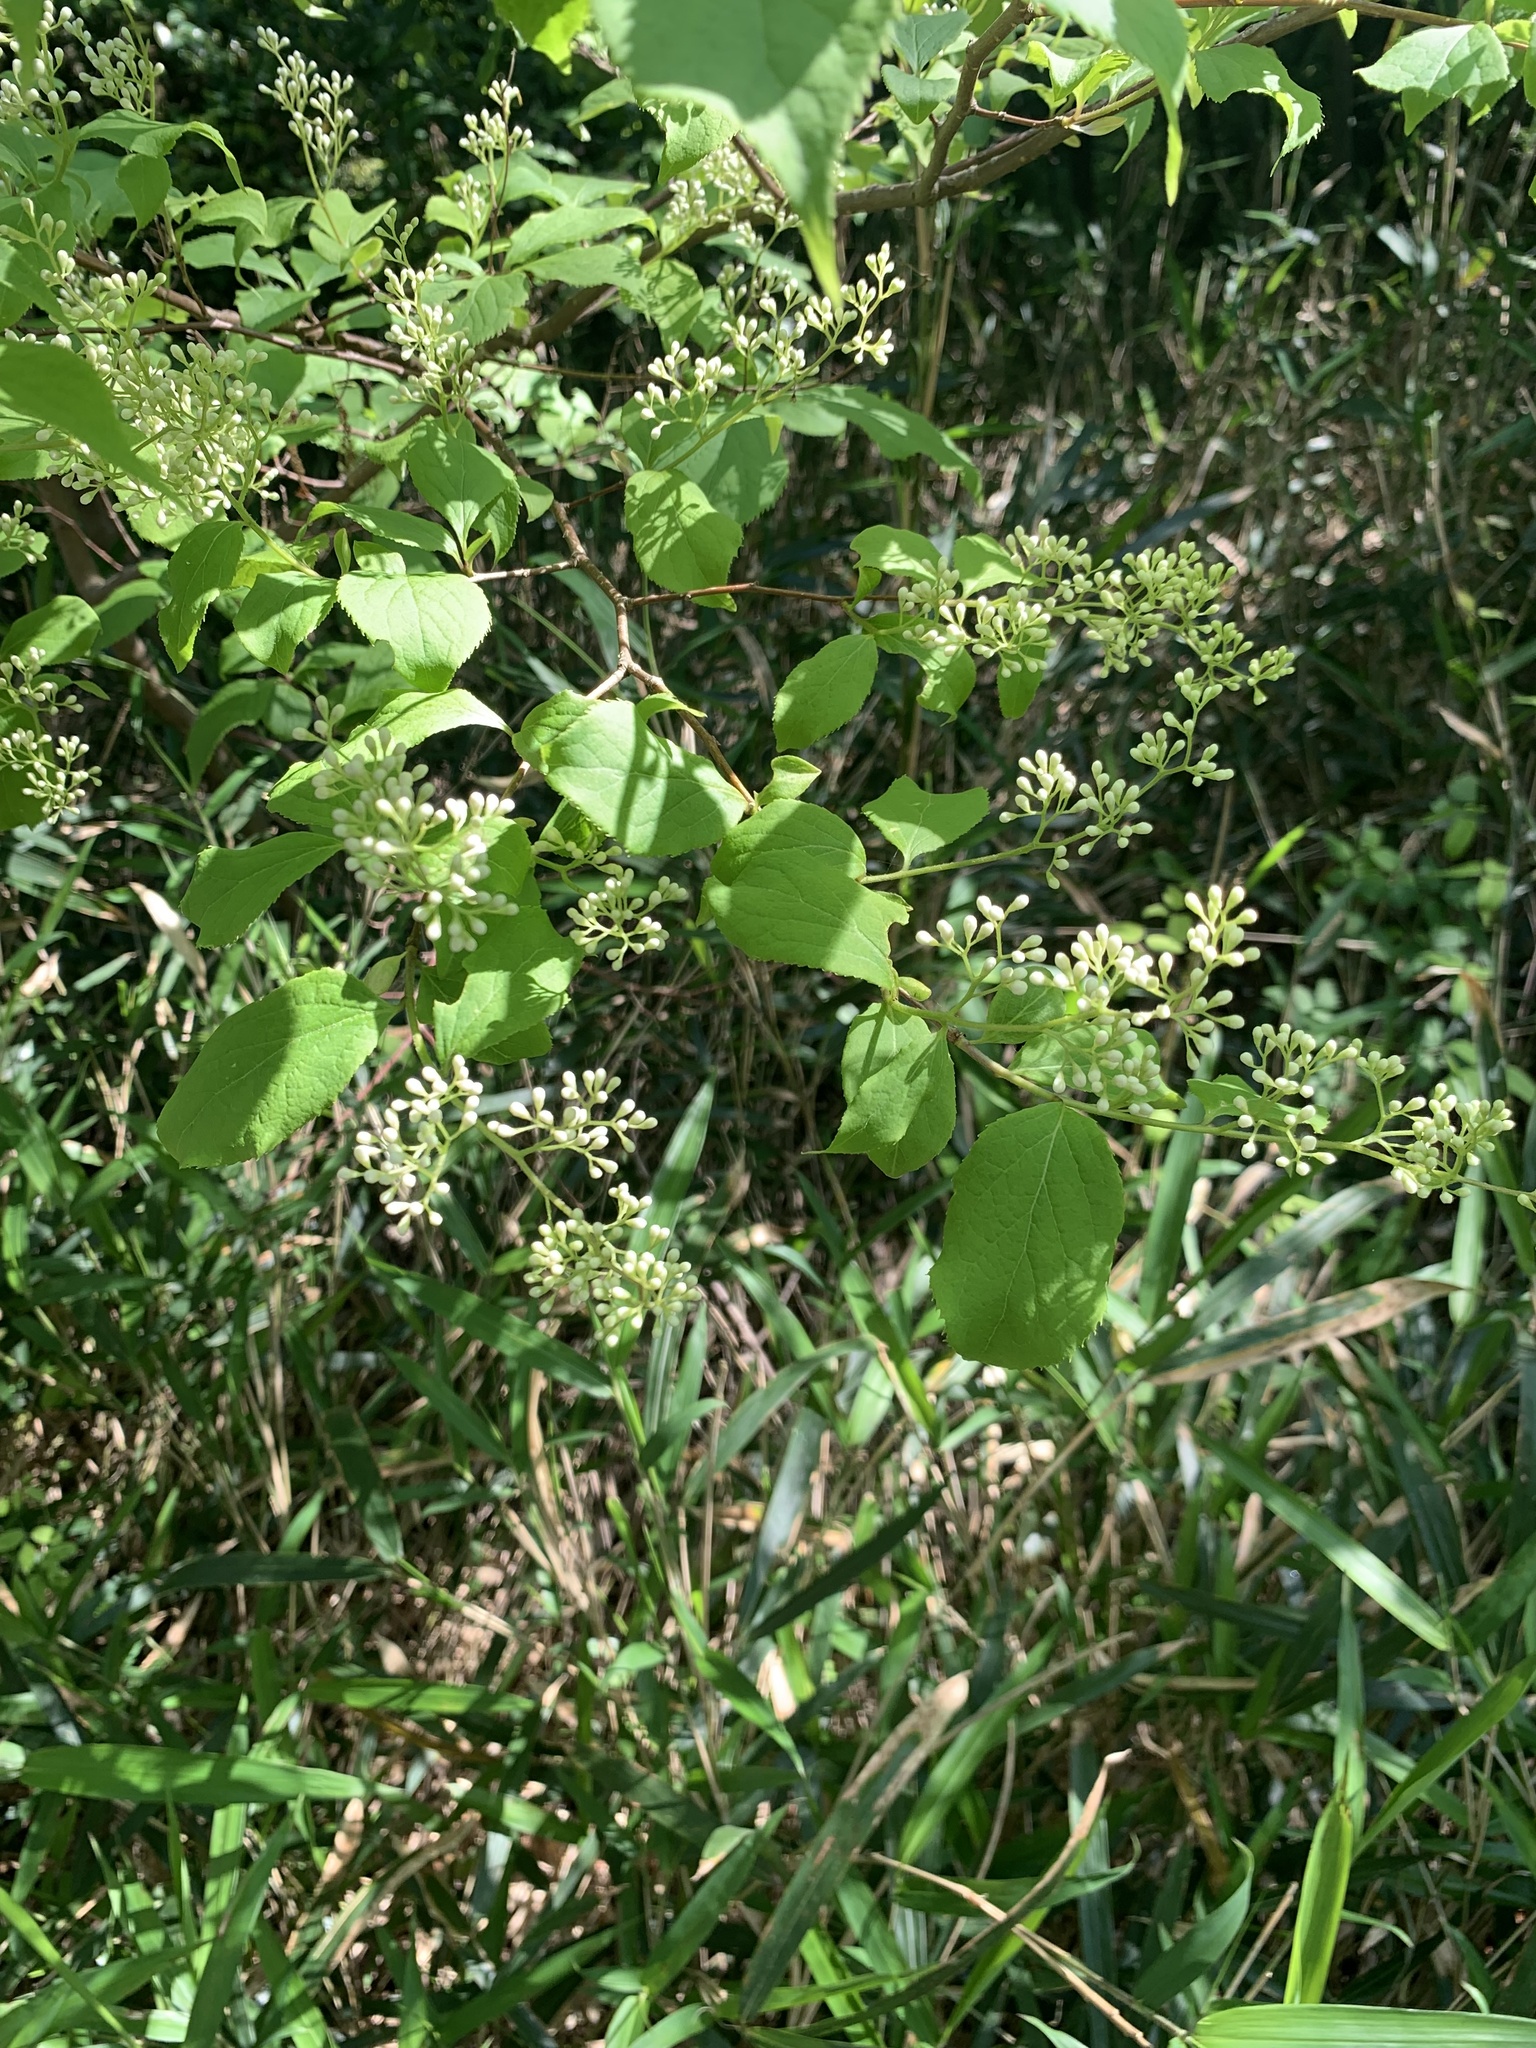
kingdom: Plantae
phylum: Tracheophyta
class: Magnoliopsida
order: Ericales
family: Symplocaceae
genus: Symplocos
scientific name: Symplocos coreana
